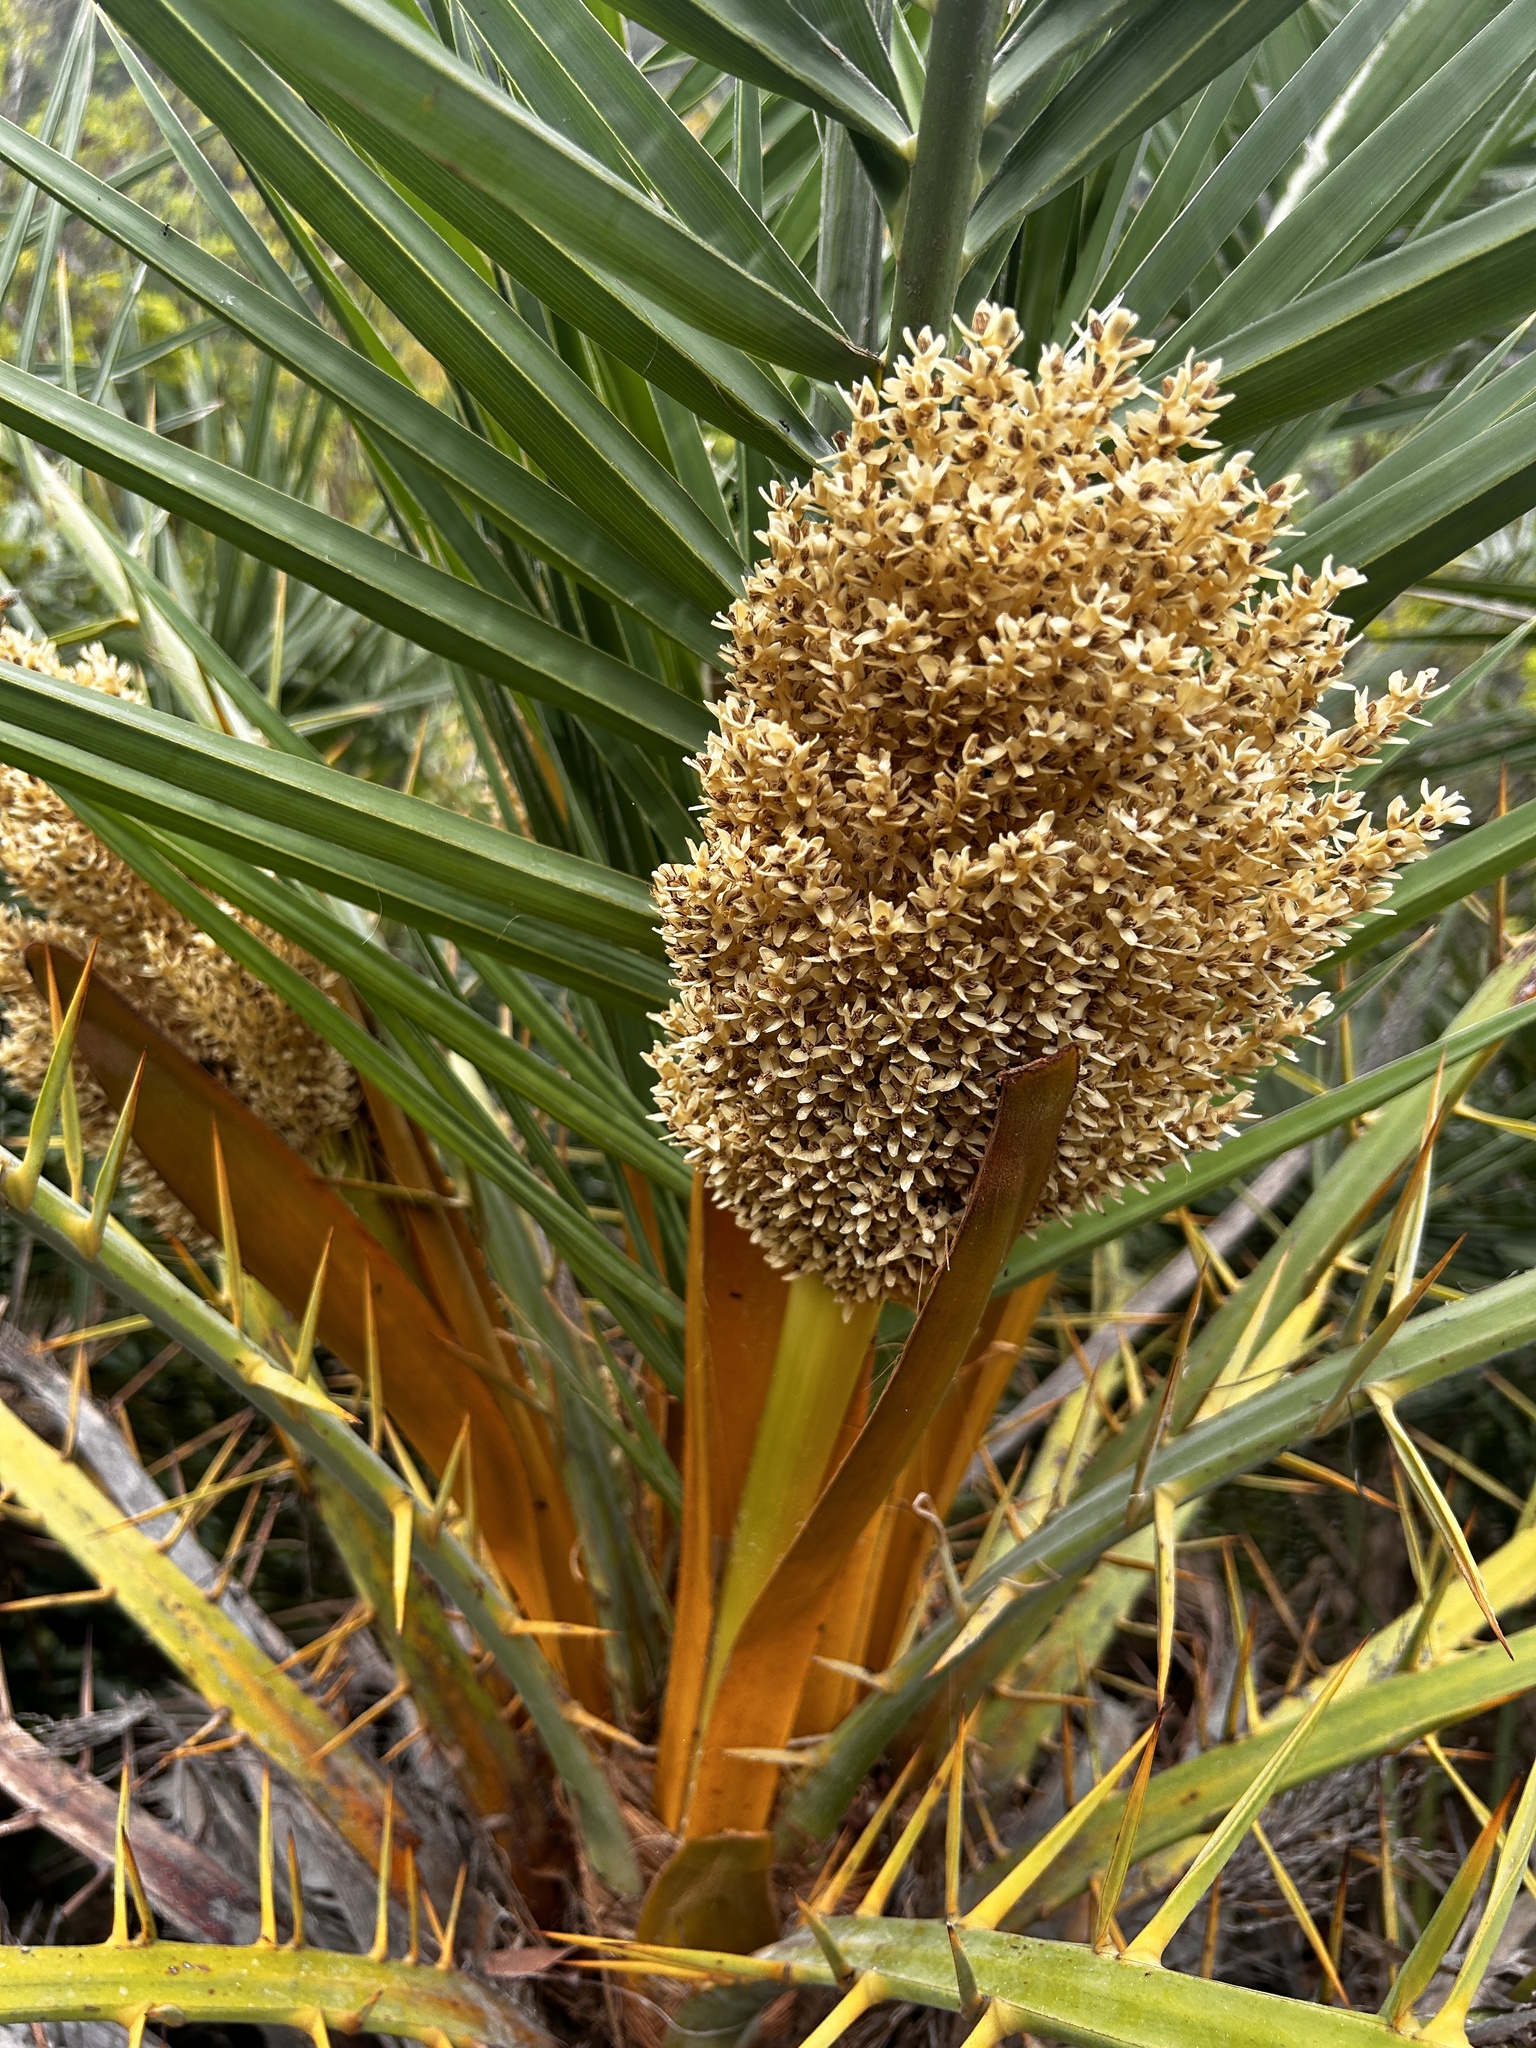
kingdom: Plantae
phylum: Tracheophyta
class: Liliopsida
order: Arecales
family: Arecaceae
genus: Phoenix
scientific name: Phoenix loureiroi
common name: Loureiro's palm
